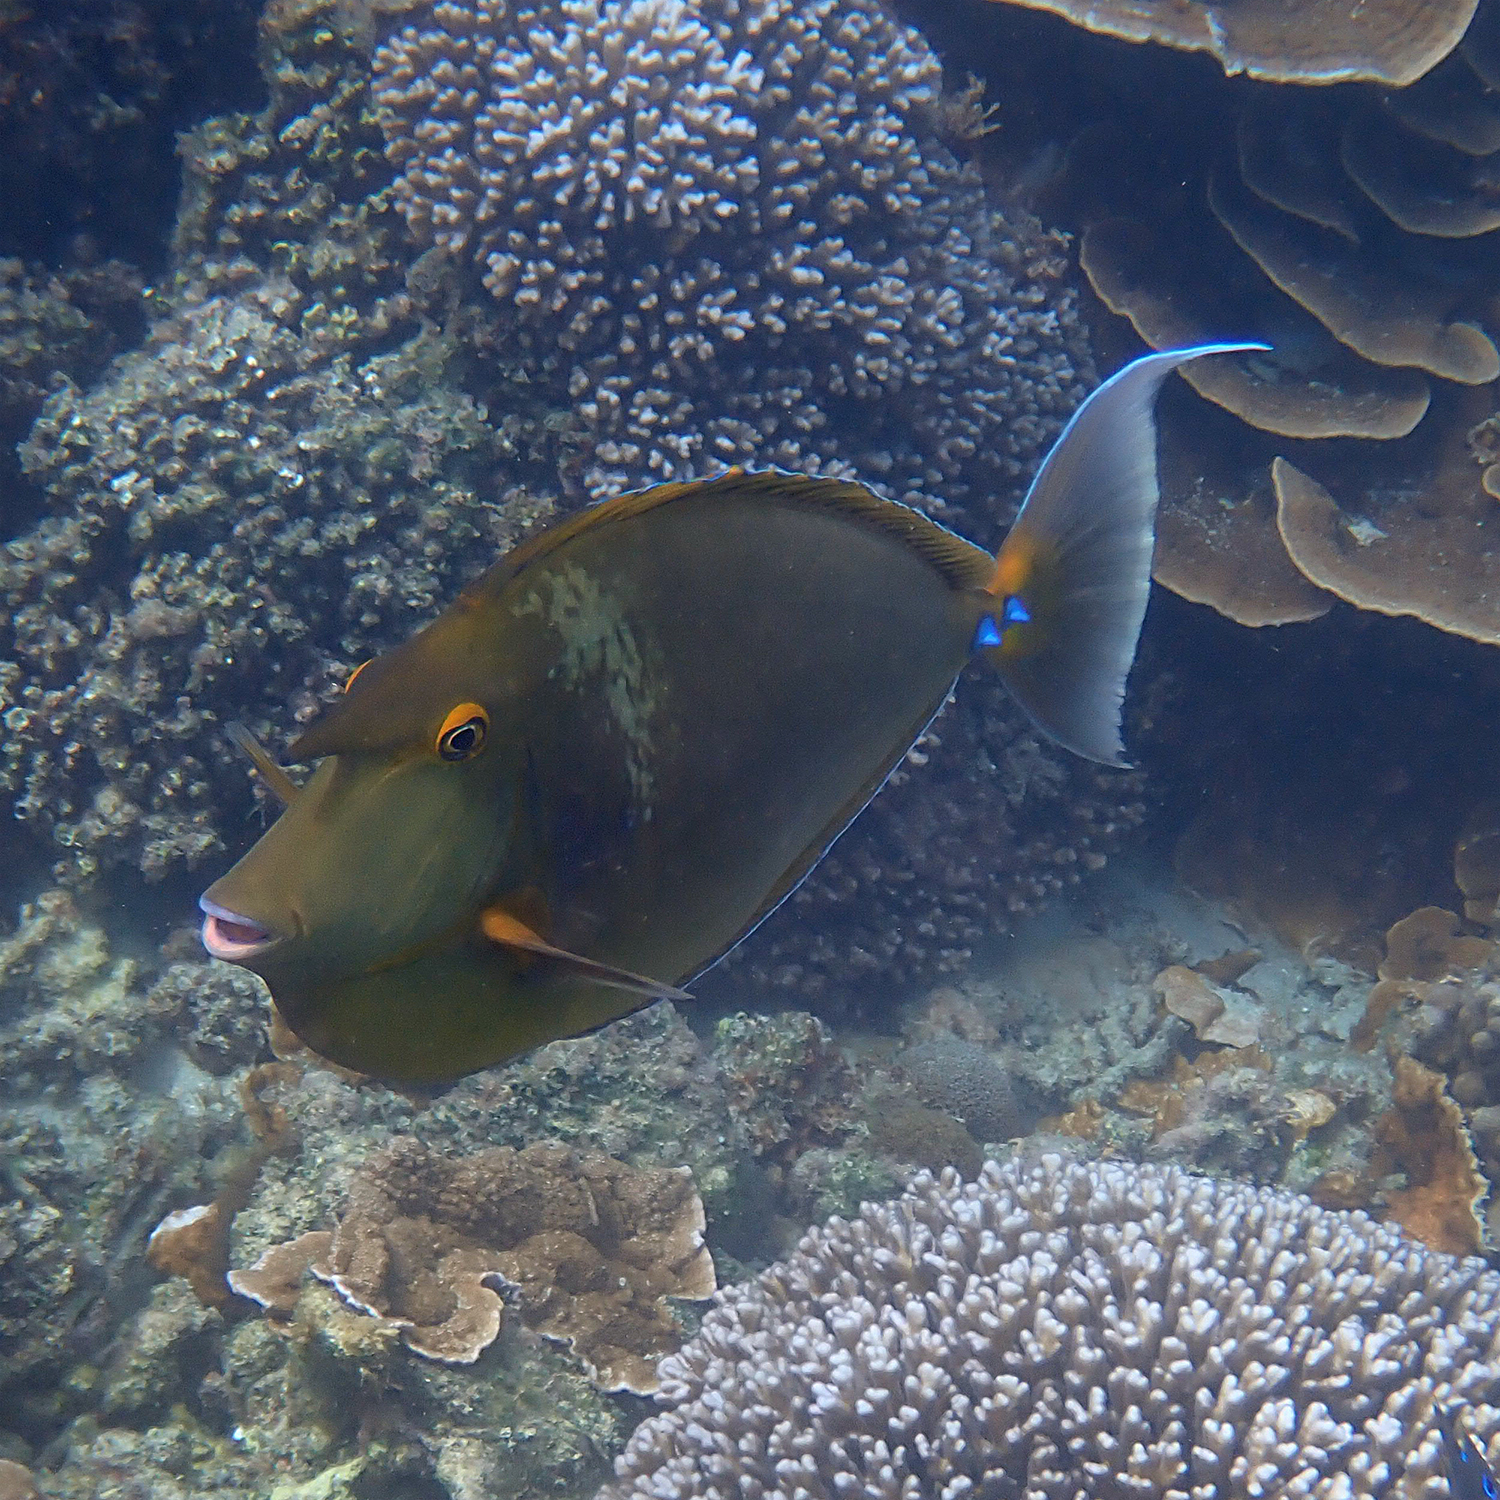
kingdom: Animalia
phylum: Chordata
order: Perciformes
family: Acanthuridae
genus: Naso
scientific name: Naso unicornis
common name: Bluespine unicornfish
